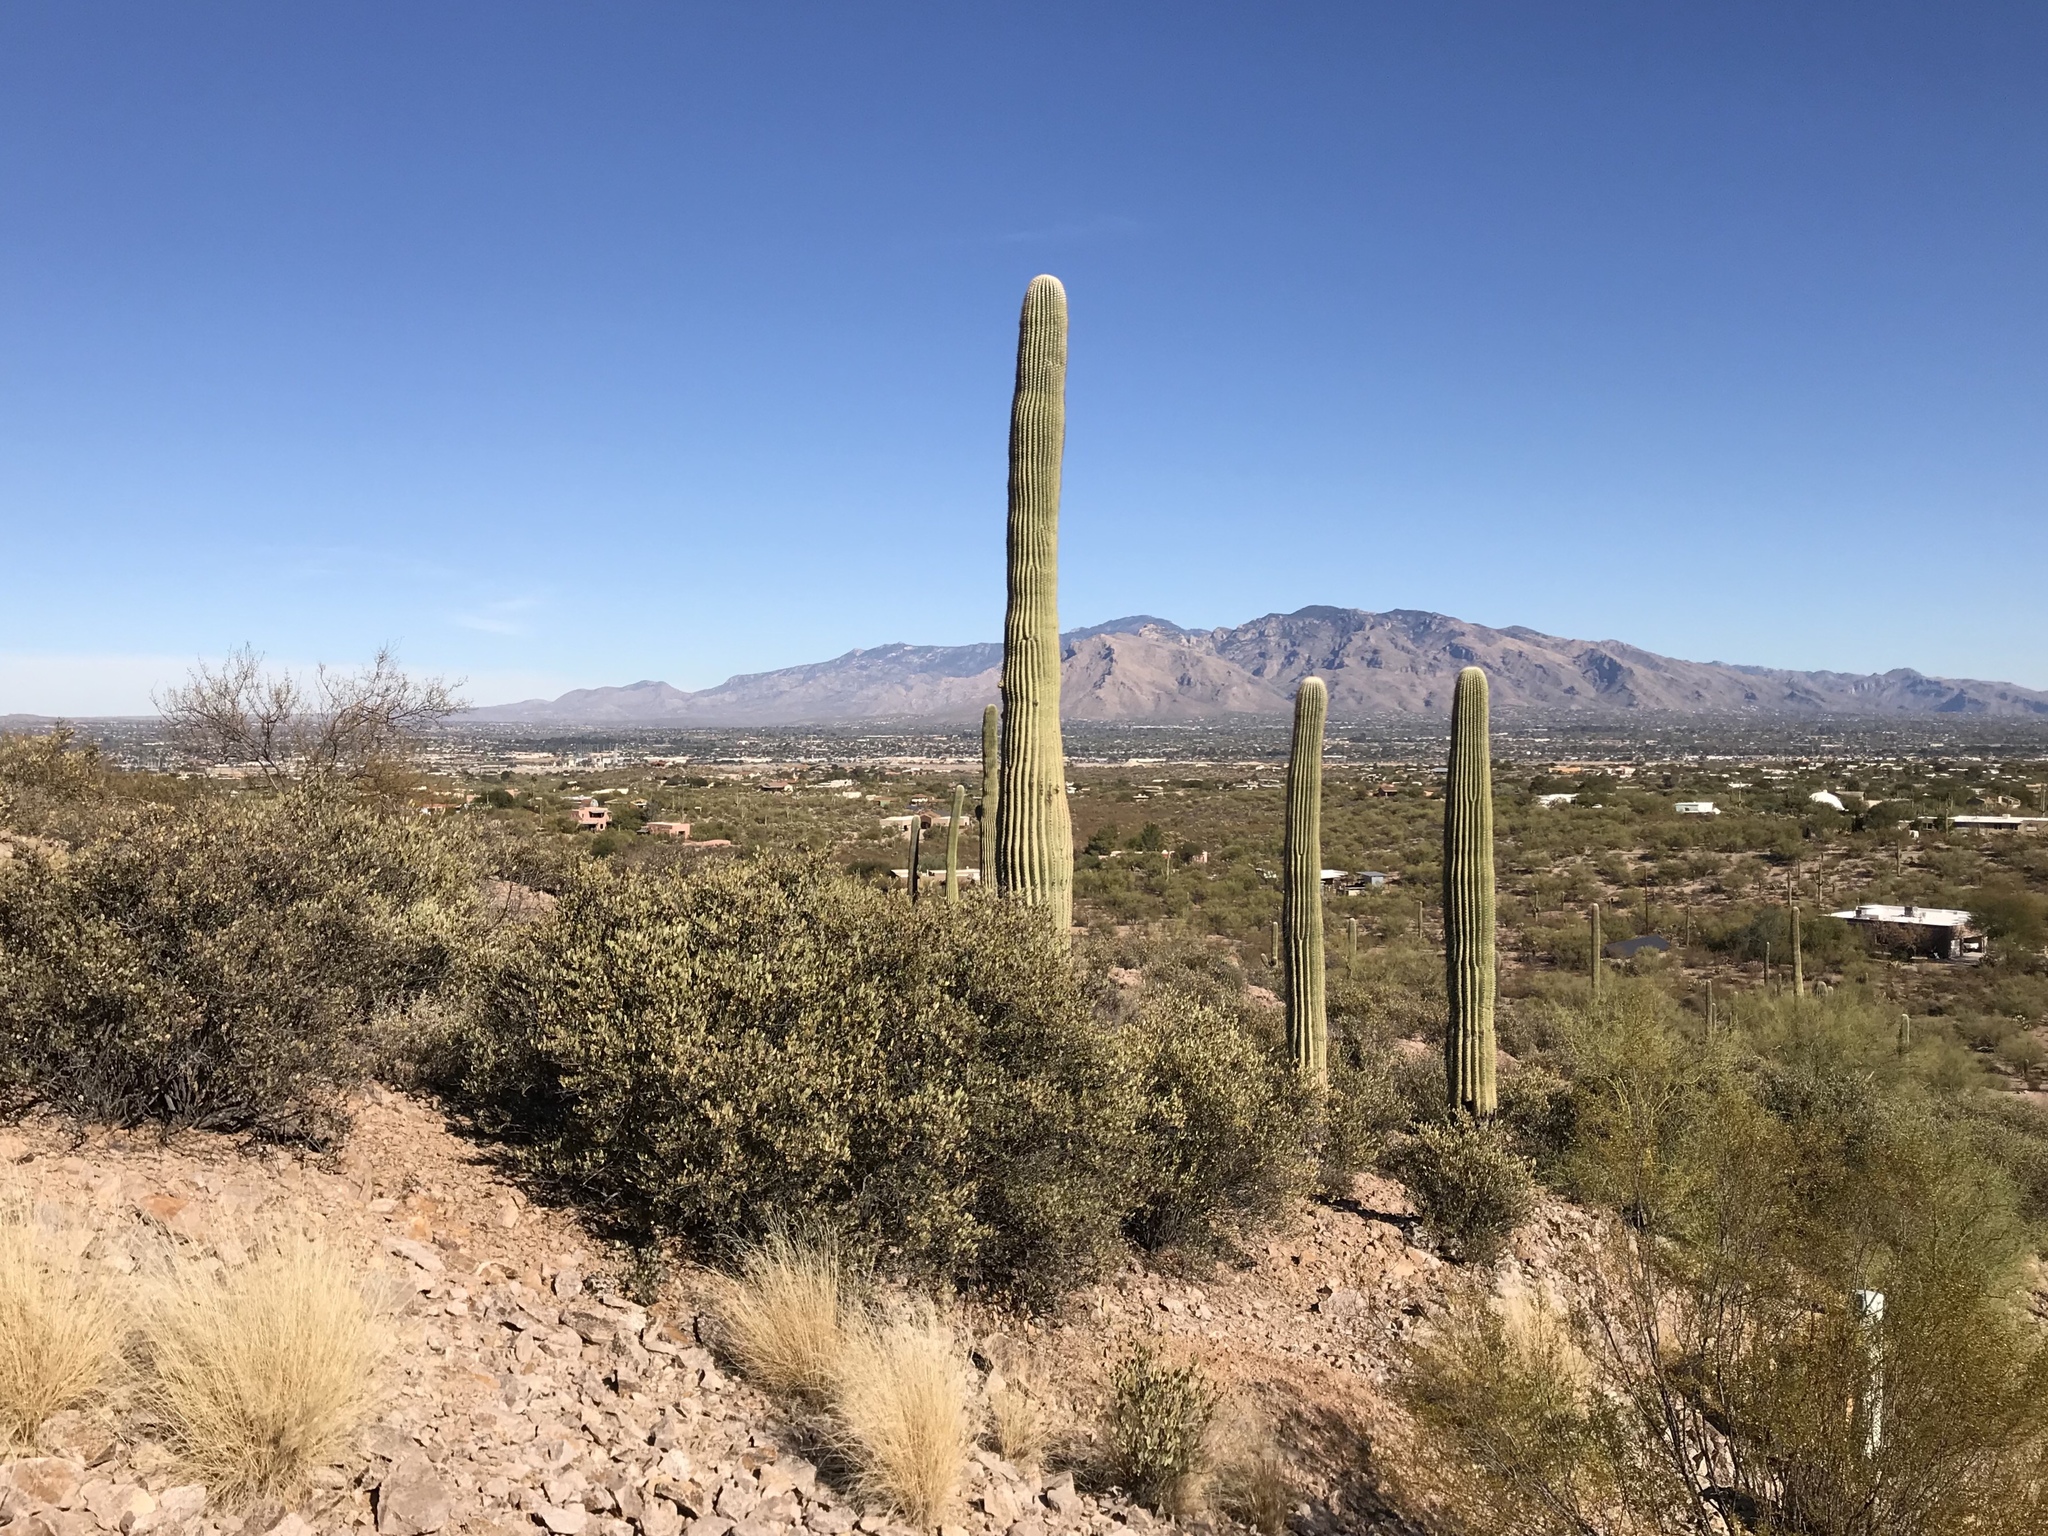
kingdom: Plantae
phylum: Tracheophyta
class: Magnoliopsida
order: Caryophyllales
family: Cactaceae
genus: Carnegiea
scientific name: Carnegiea gigantea
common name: Saguaro
